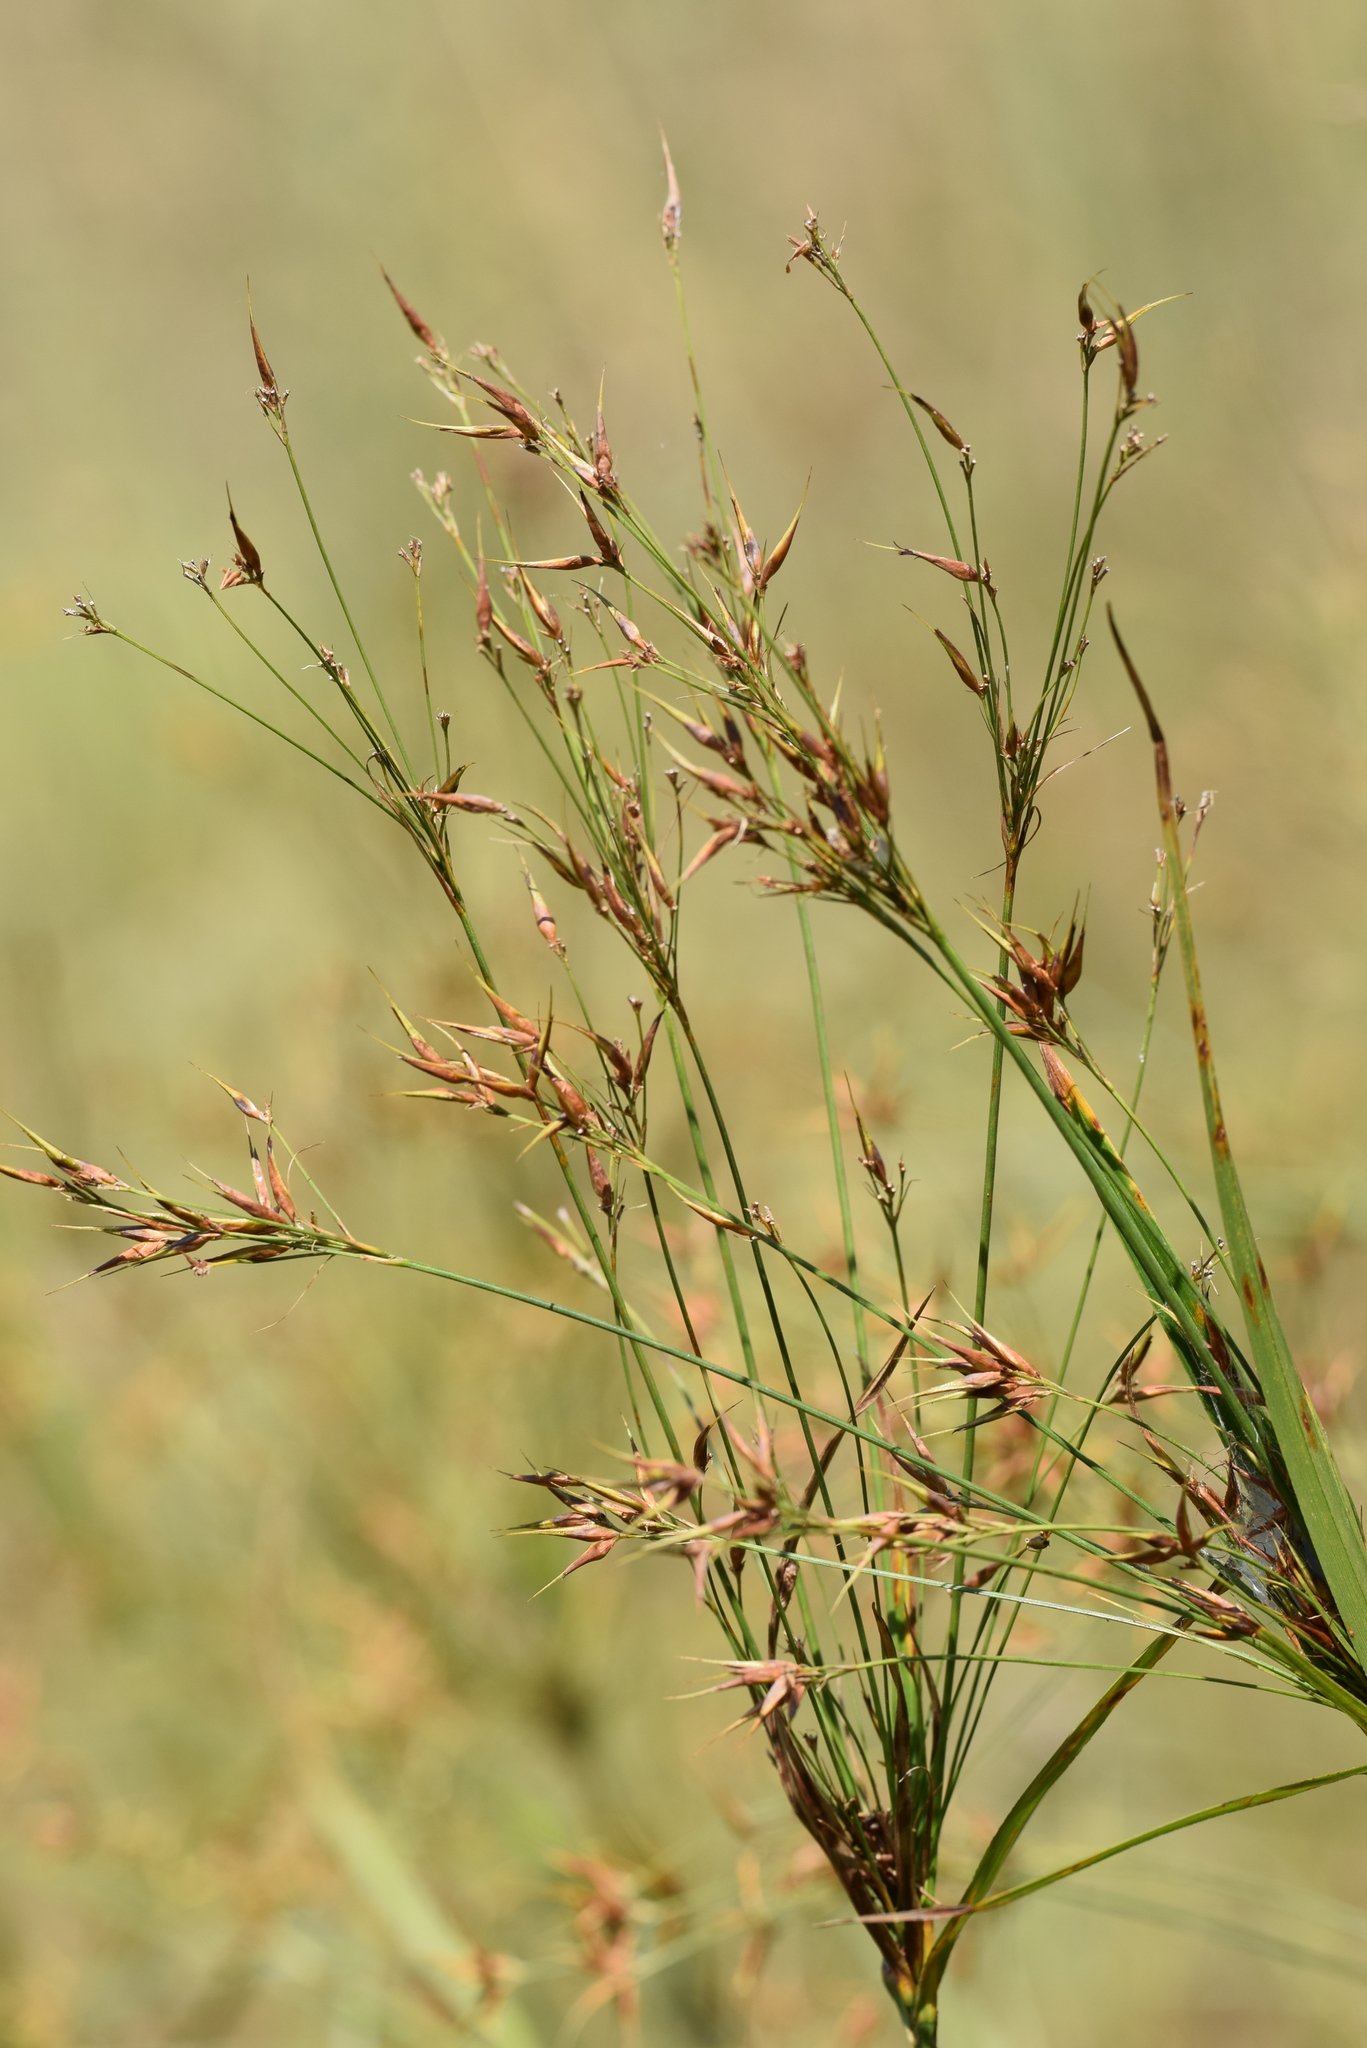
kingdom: Plantae
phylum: Tracheophyta
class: Liliopsida
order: Poales
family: Cyperaceae
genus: Rhynchospora
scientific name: Rhynchospora corniculata
